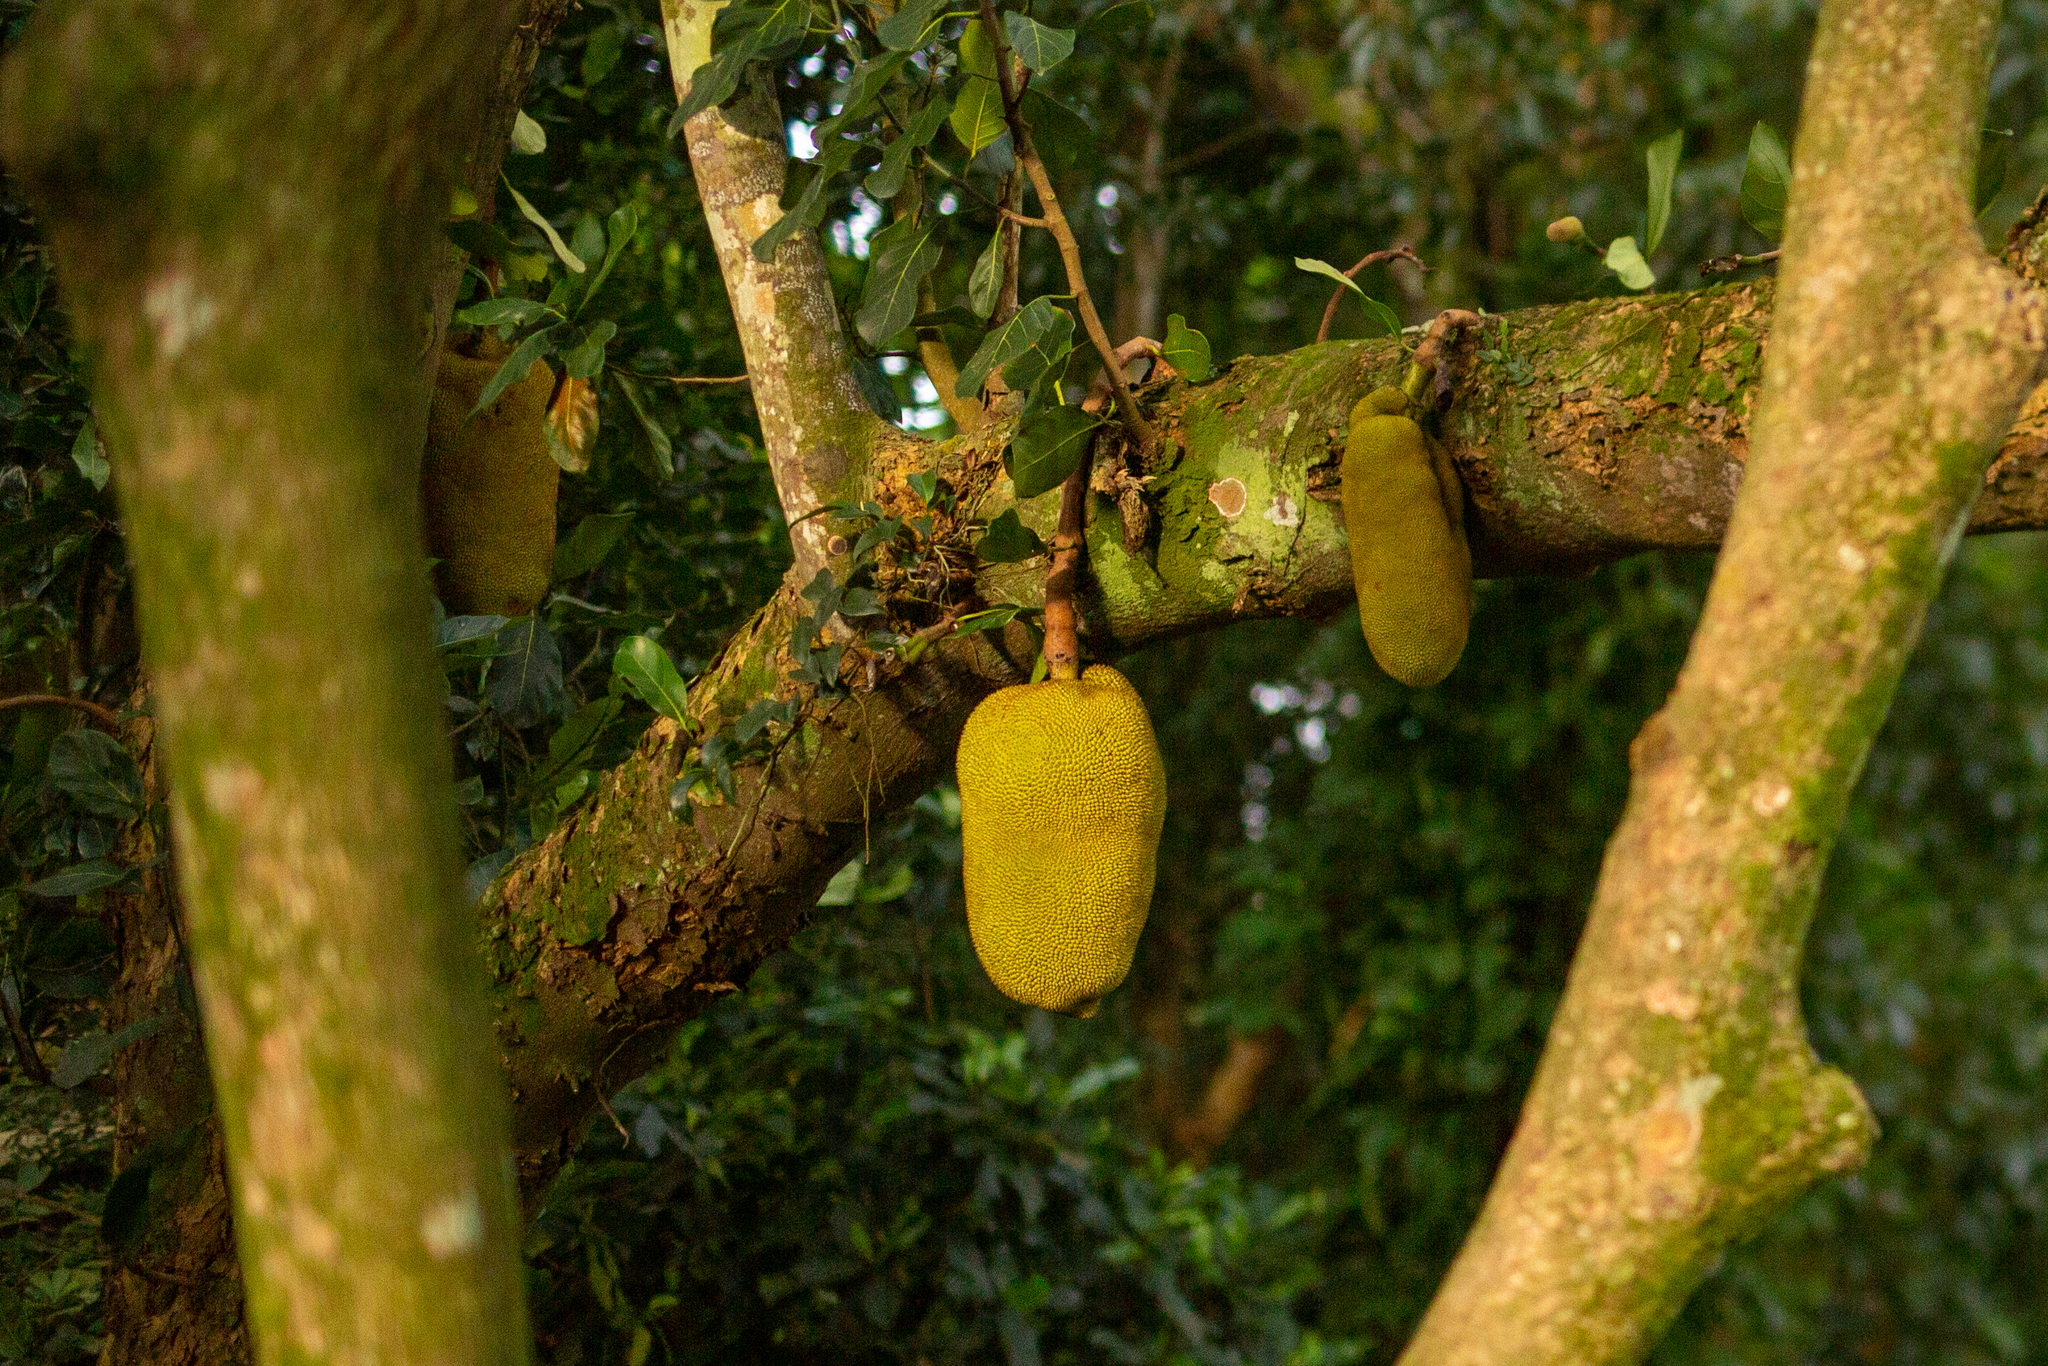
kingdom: Plantae
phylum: Tracheophyta
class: Magnoliopsida
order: Rosales
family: Moraceae
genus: Artocarpus
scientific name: Artocarpus heterophyllus
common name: Jackfruit
